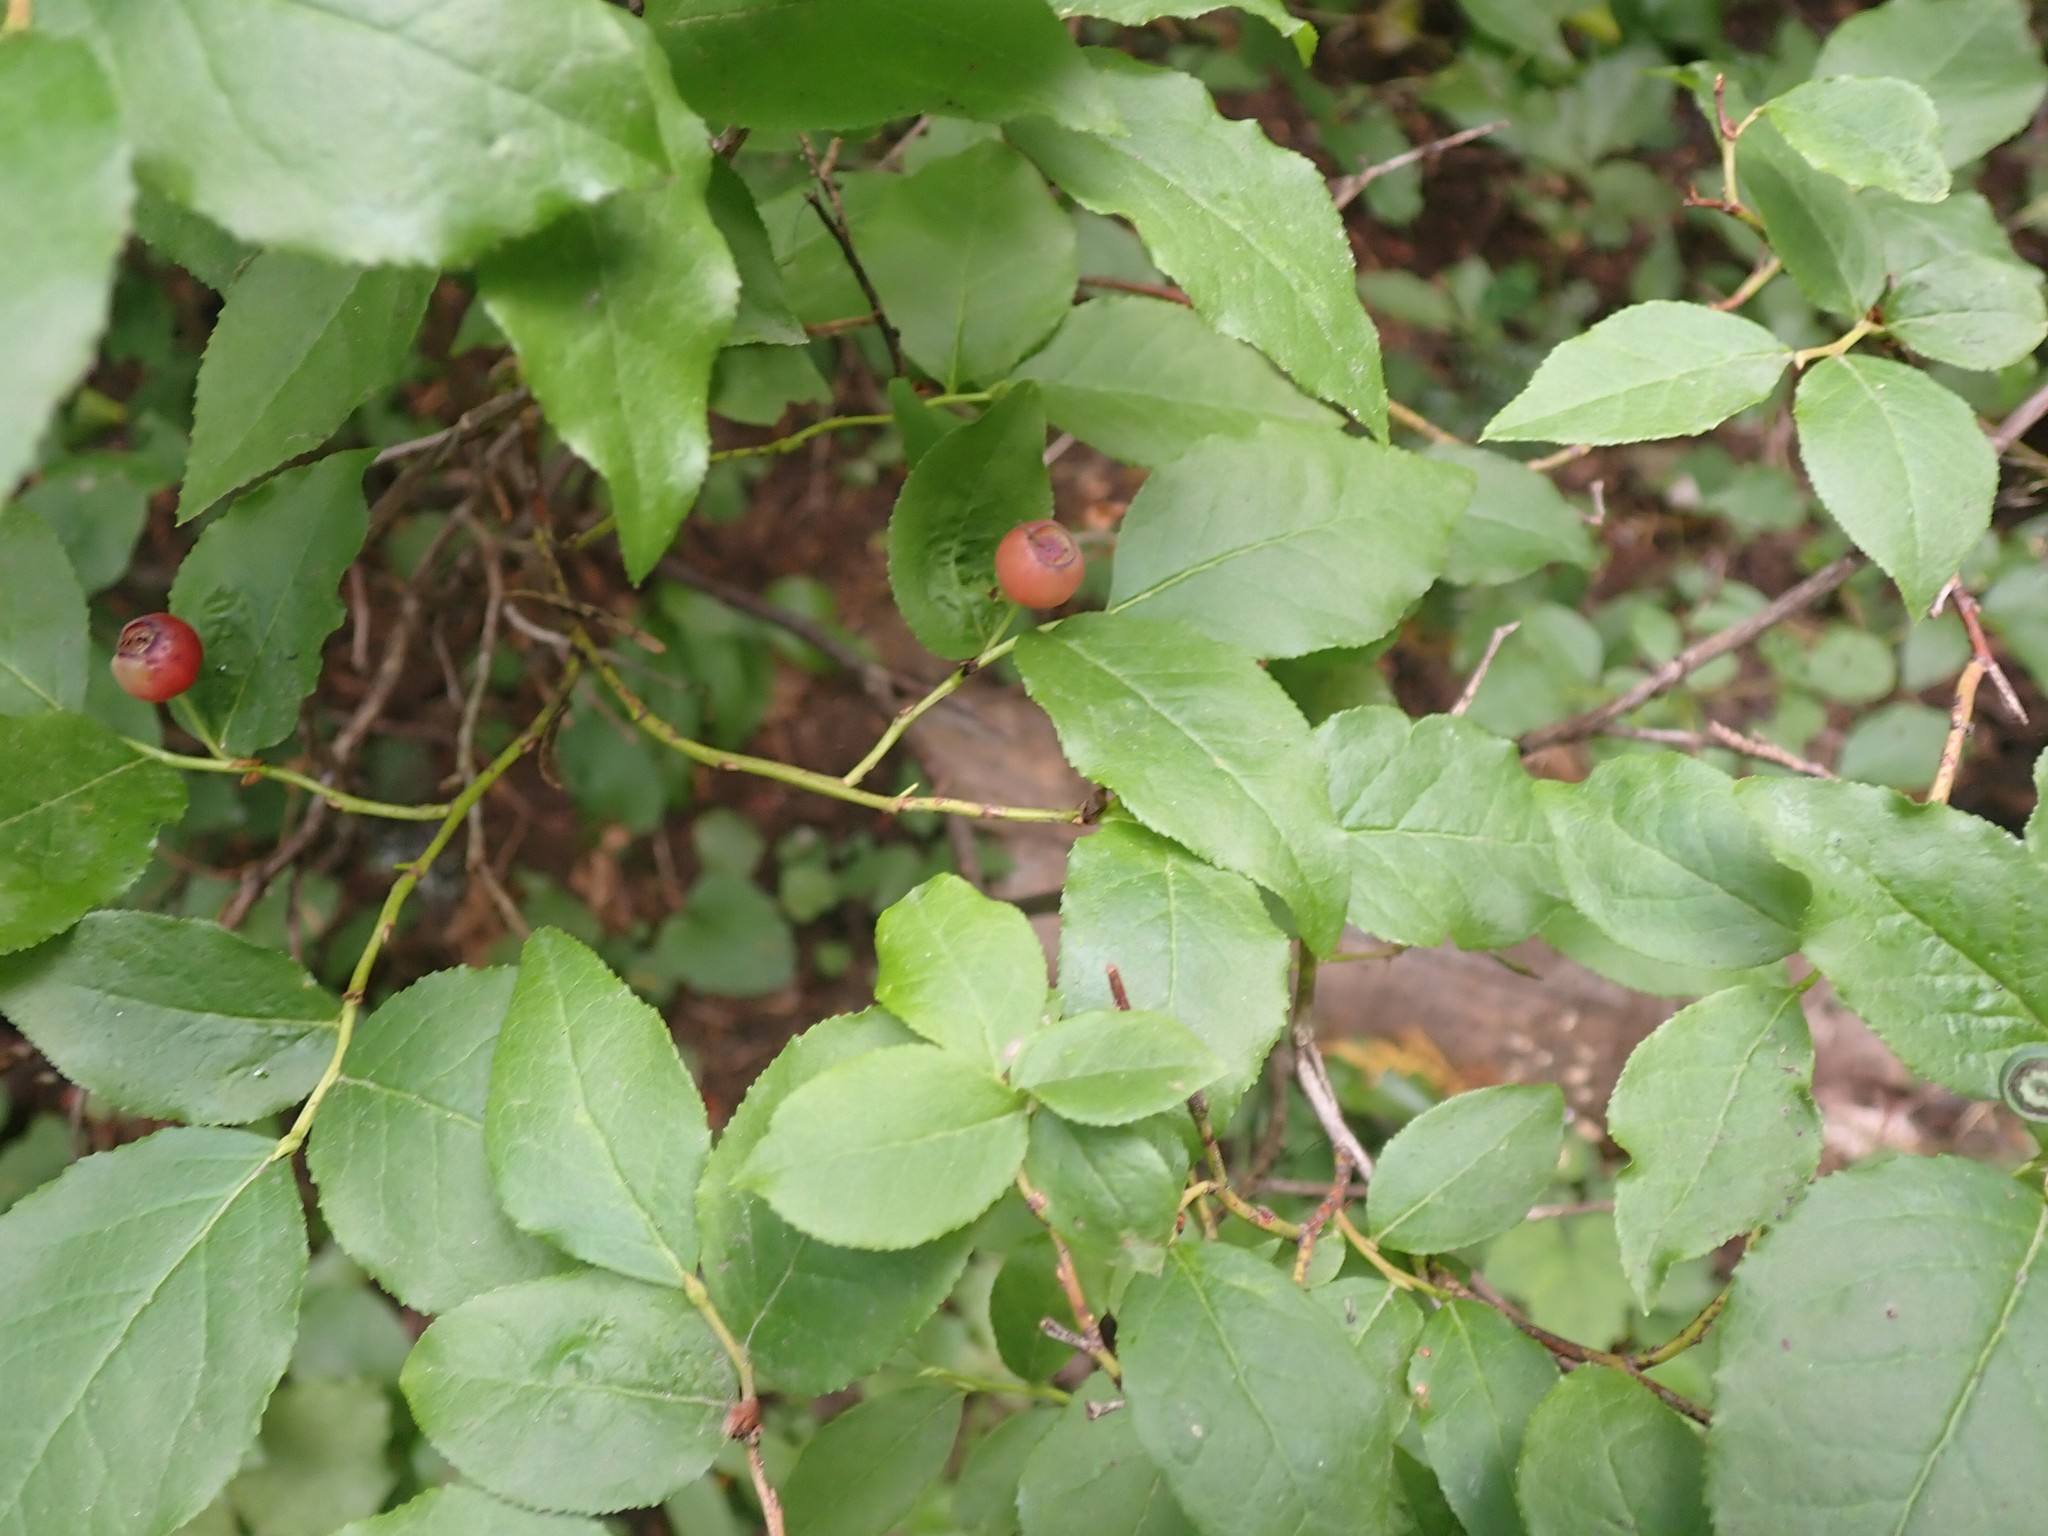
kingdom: Plantae
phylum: Tracheophyta
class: Magnoliopsida
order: Ericales
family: Ericaceae
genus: Vaccinium
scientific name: Vaccinium membranaceum
